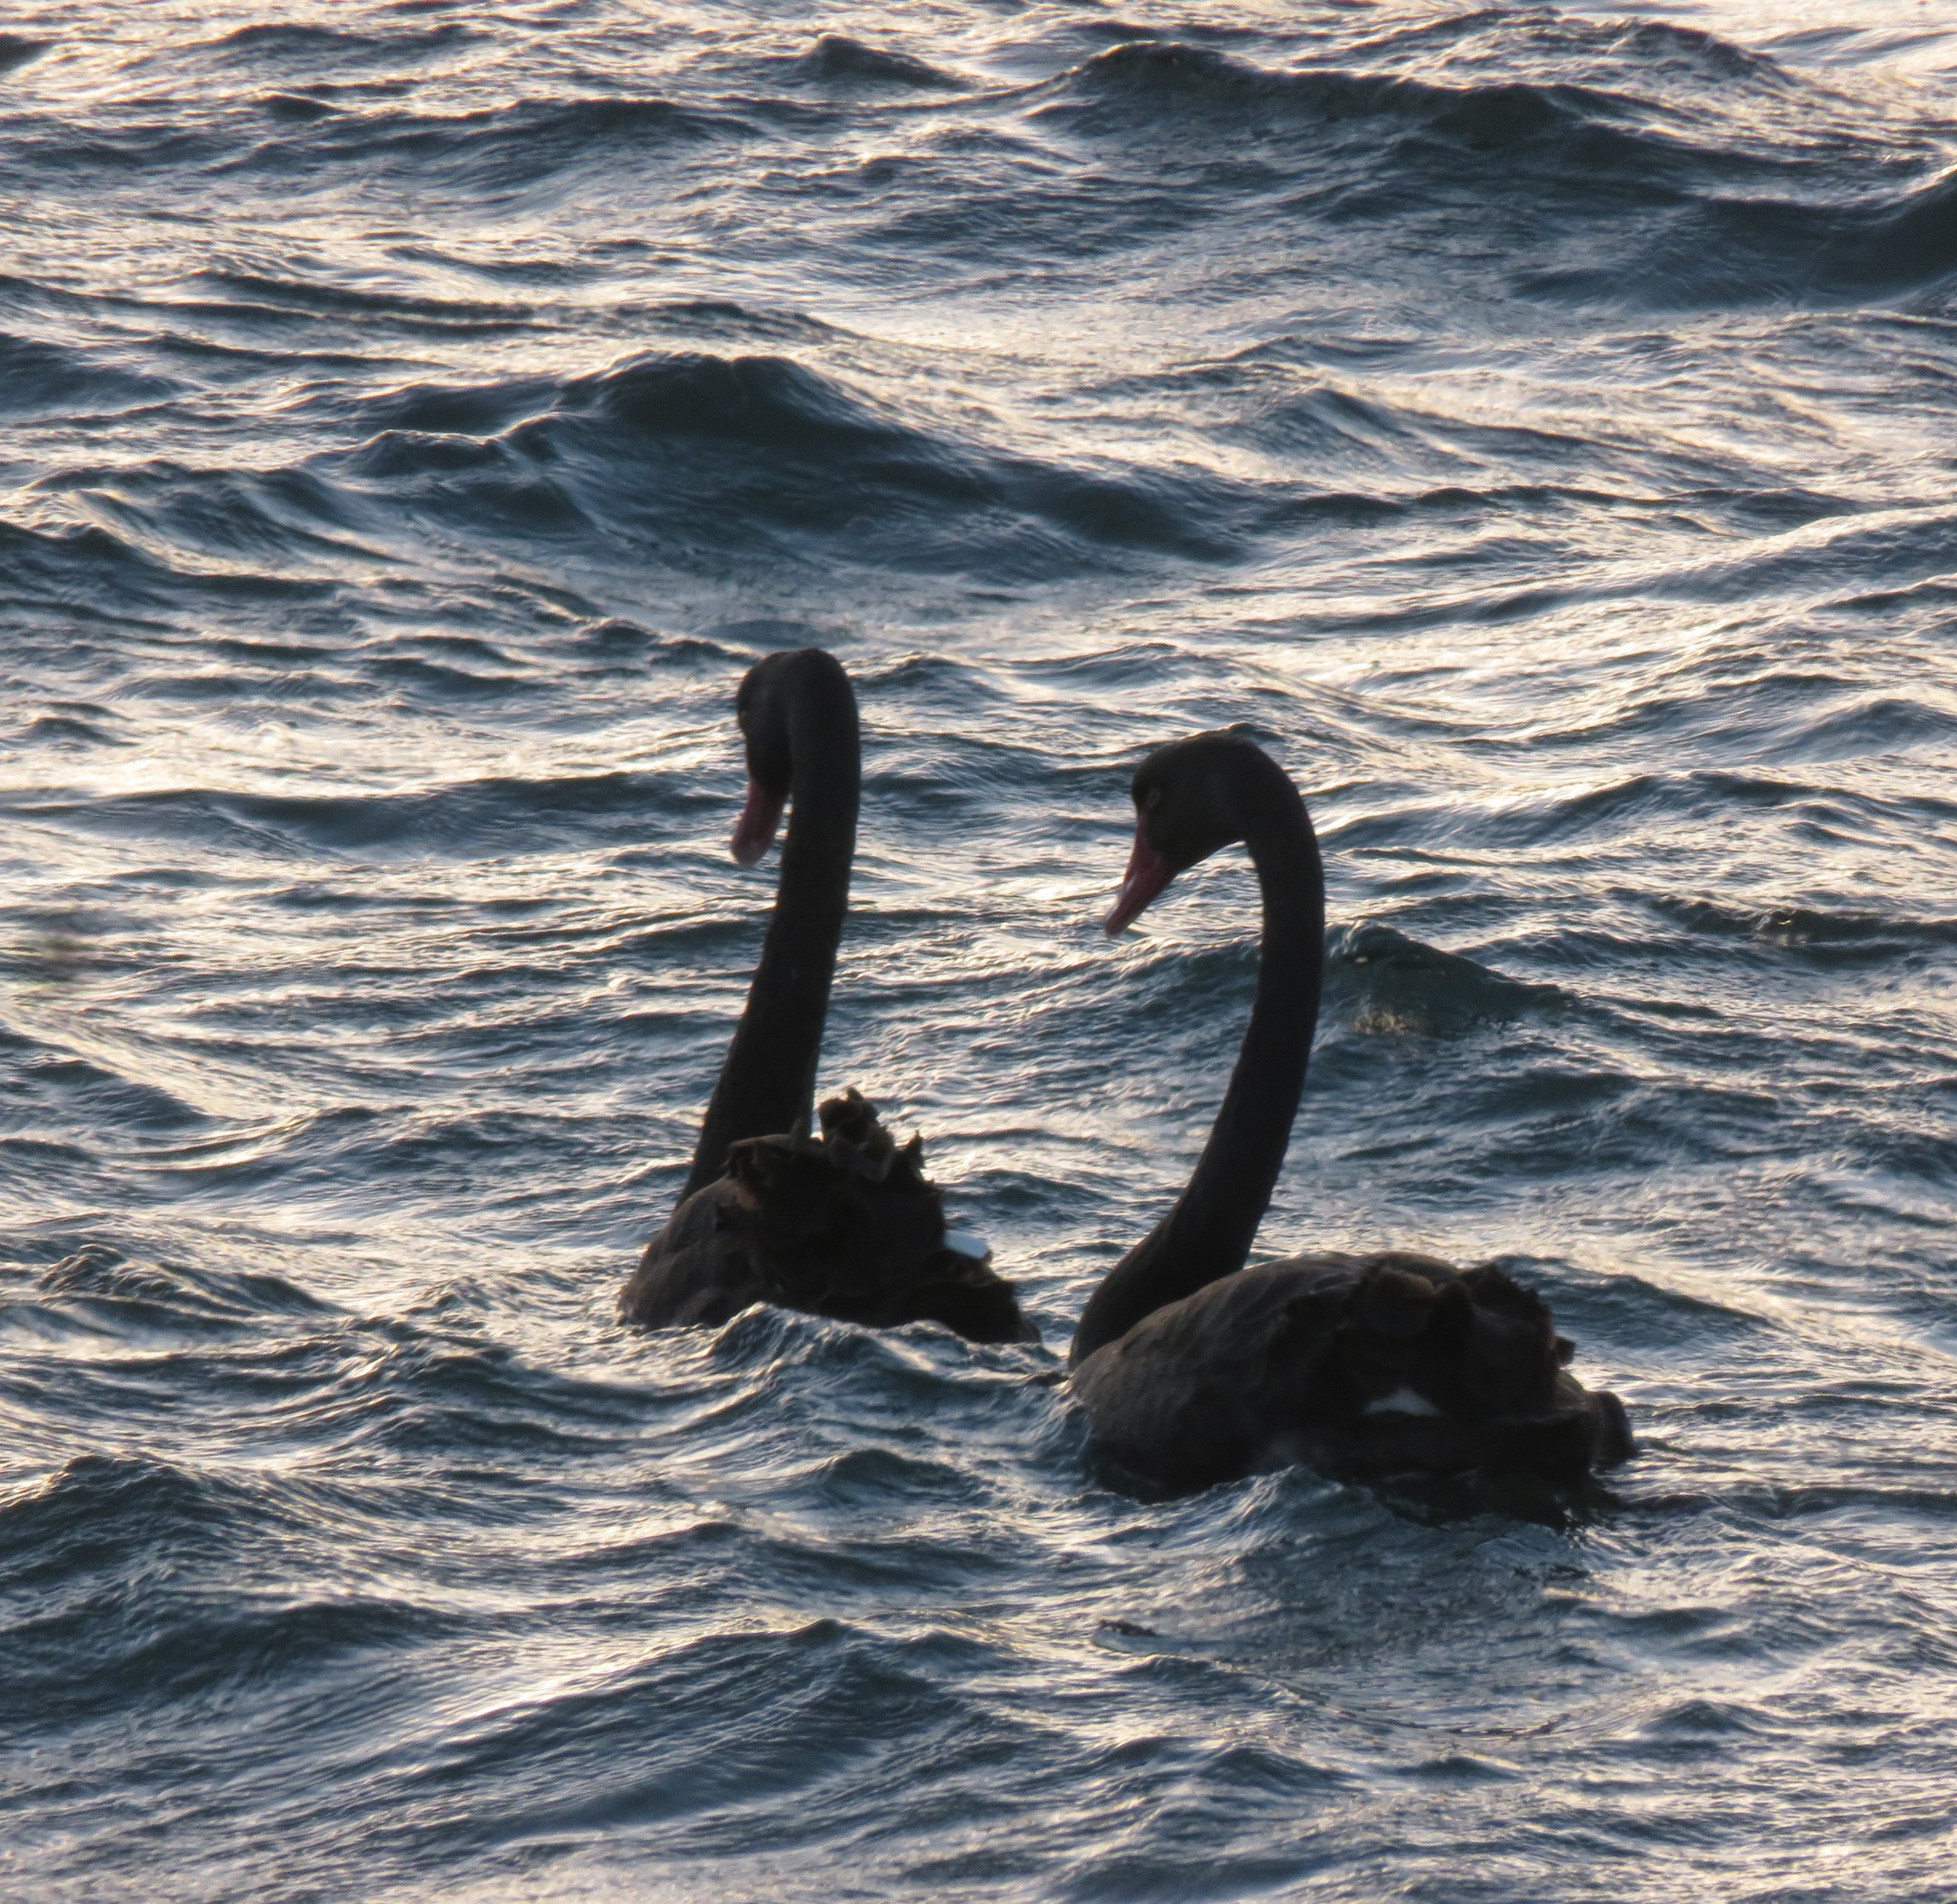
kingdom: Animalia
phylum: Chordata
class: Aves
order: Anseriformes
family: Anatidae
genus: Cygnus
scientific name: Cygnus atratus
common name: Black swan
